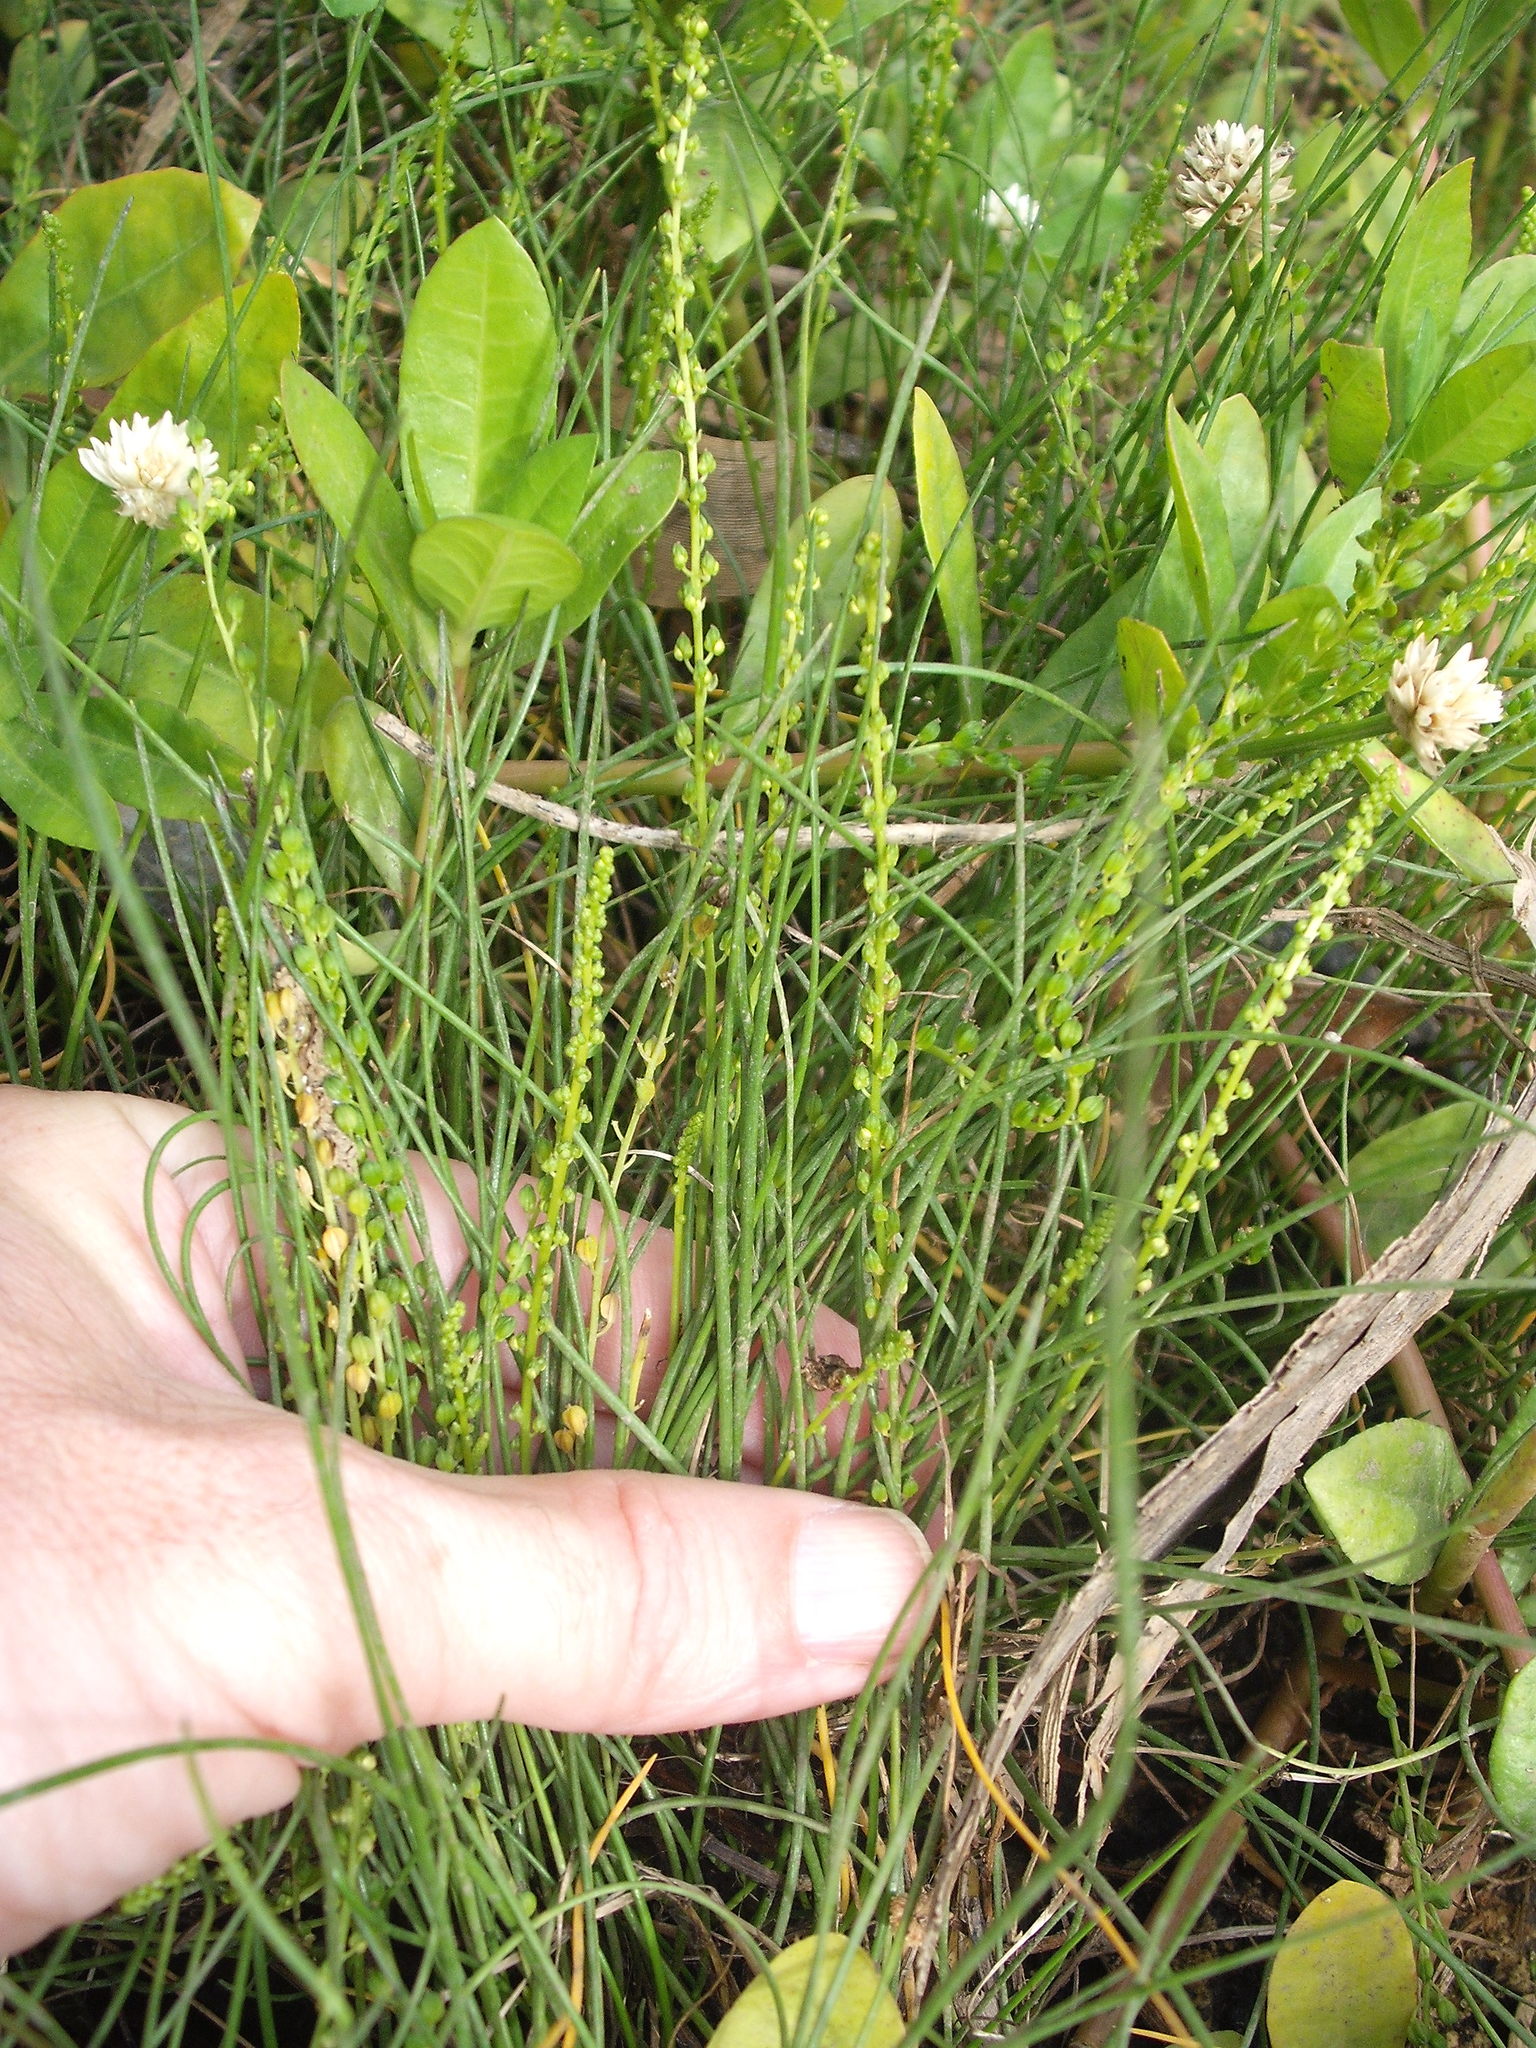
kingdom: Plantae
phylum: Tracheophyta
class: Liliopsida
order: Alismatales
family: Juncaginaceae
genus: Triglochin
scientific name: Triglochin striata
